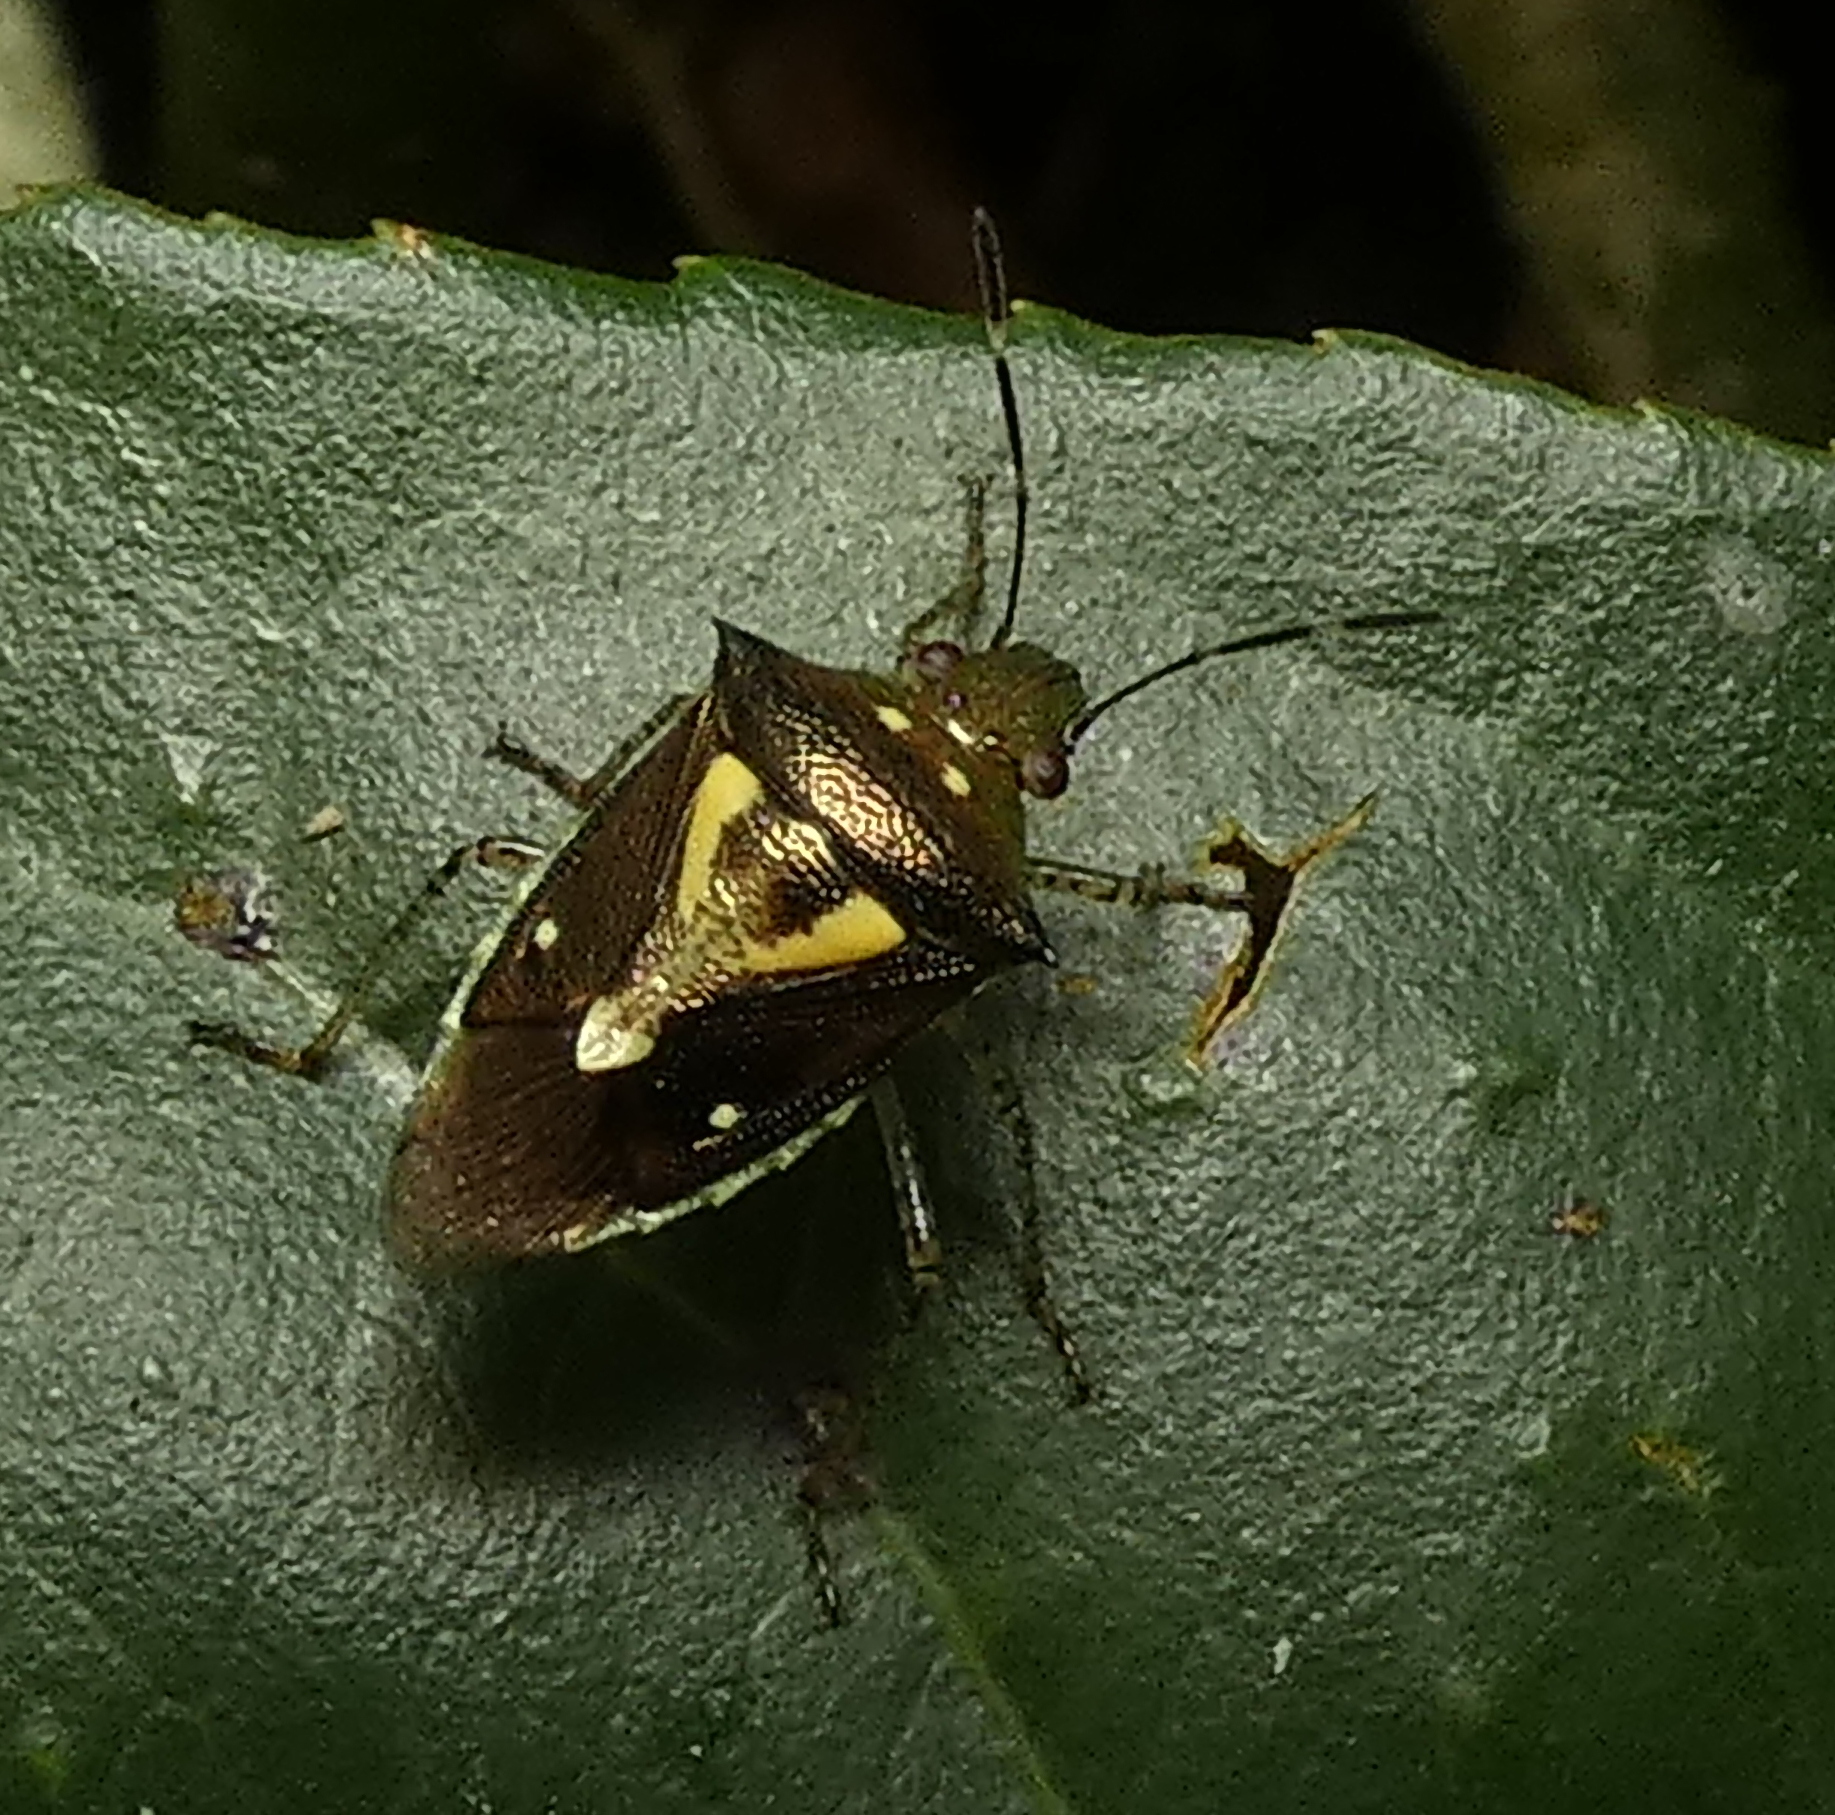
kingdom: Animalia
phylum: Arthropoda
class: Insecta
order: Hemiptera
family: Pentatomidae
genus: Mormidea
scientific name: Mormidea ypsilon
